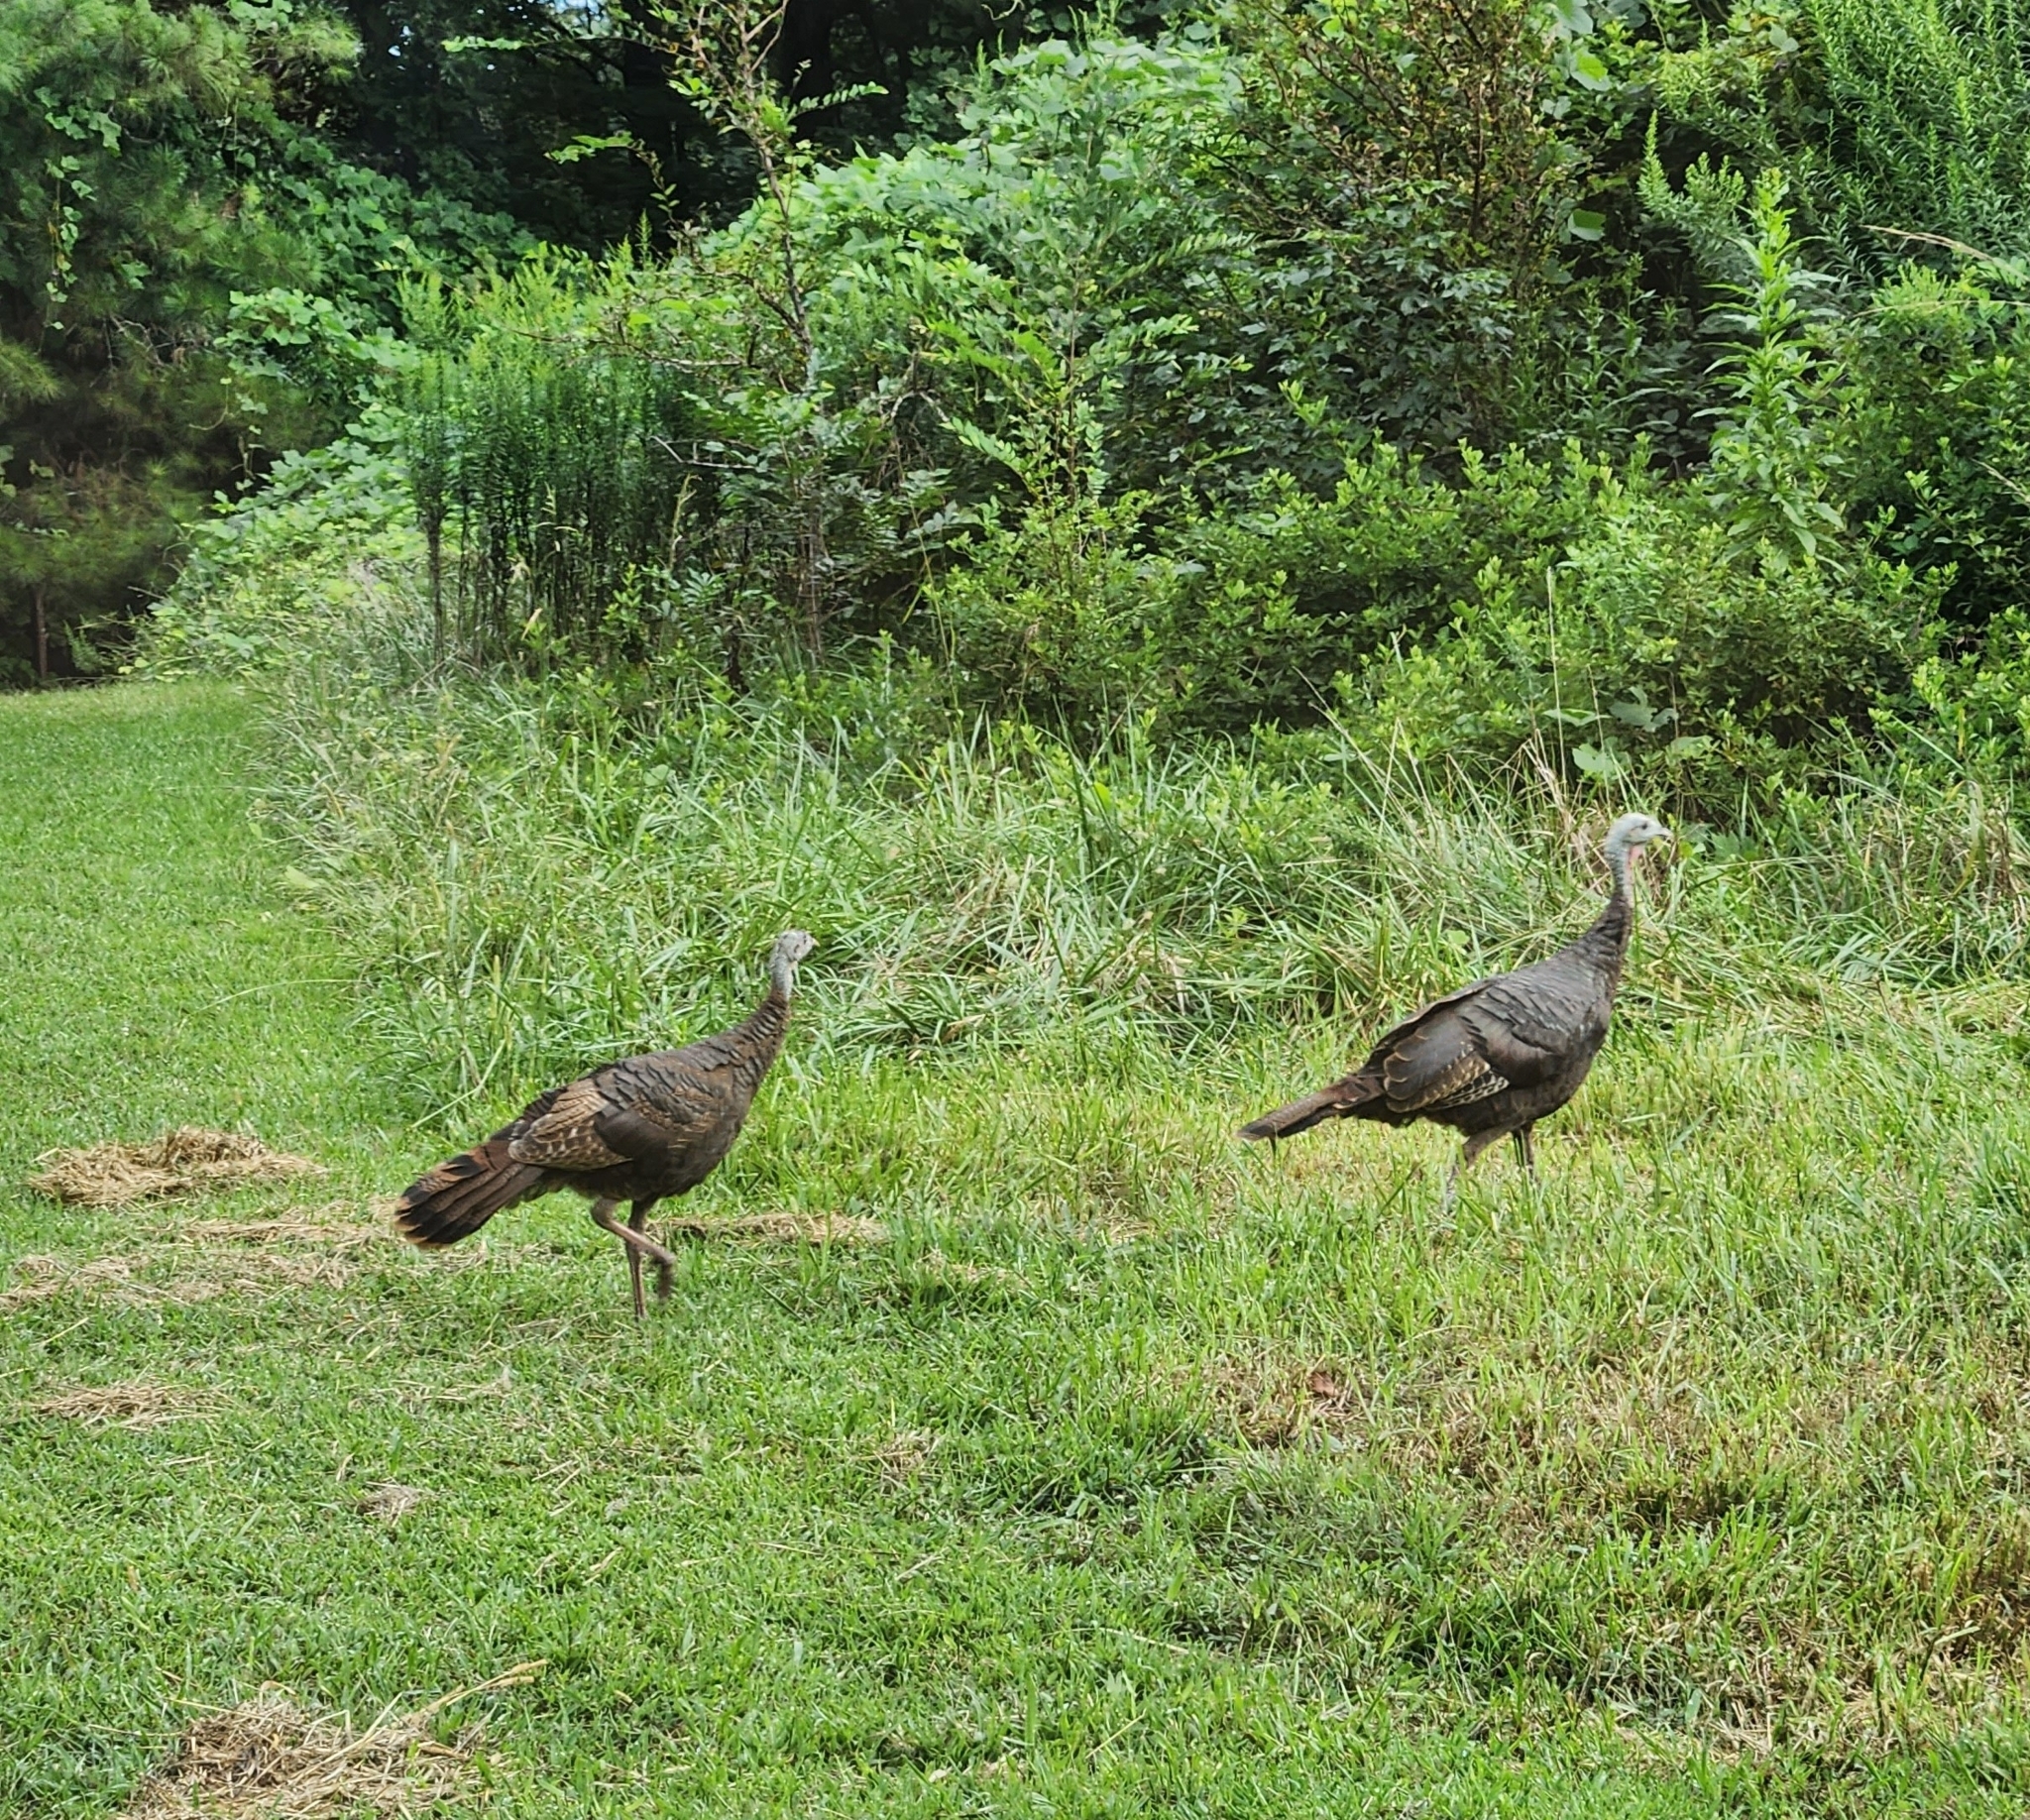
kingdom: Animalia
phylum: Chordata
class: Aves
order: Galliformes
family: Phasianidae
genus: Meleagris
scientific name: Meleagris gallopavo
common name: Wild turkey
